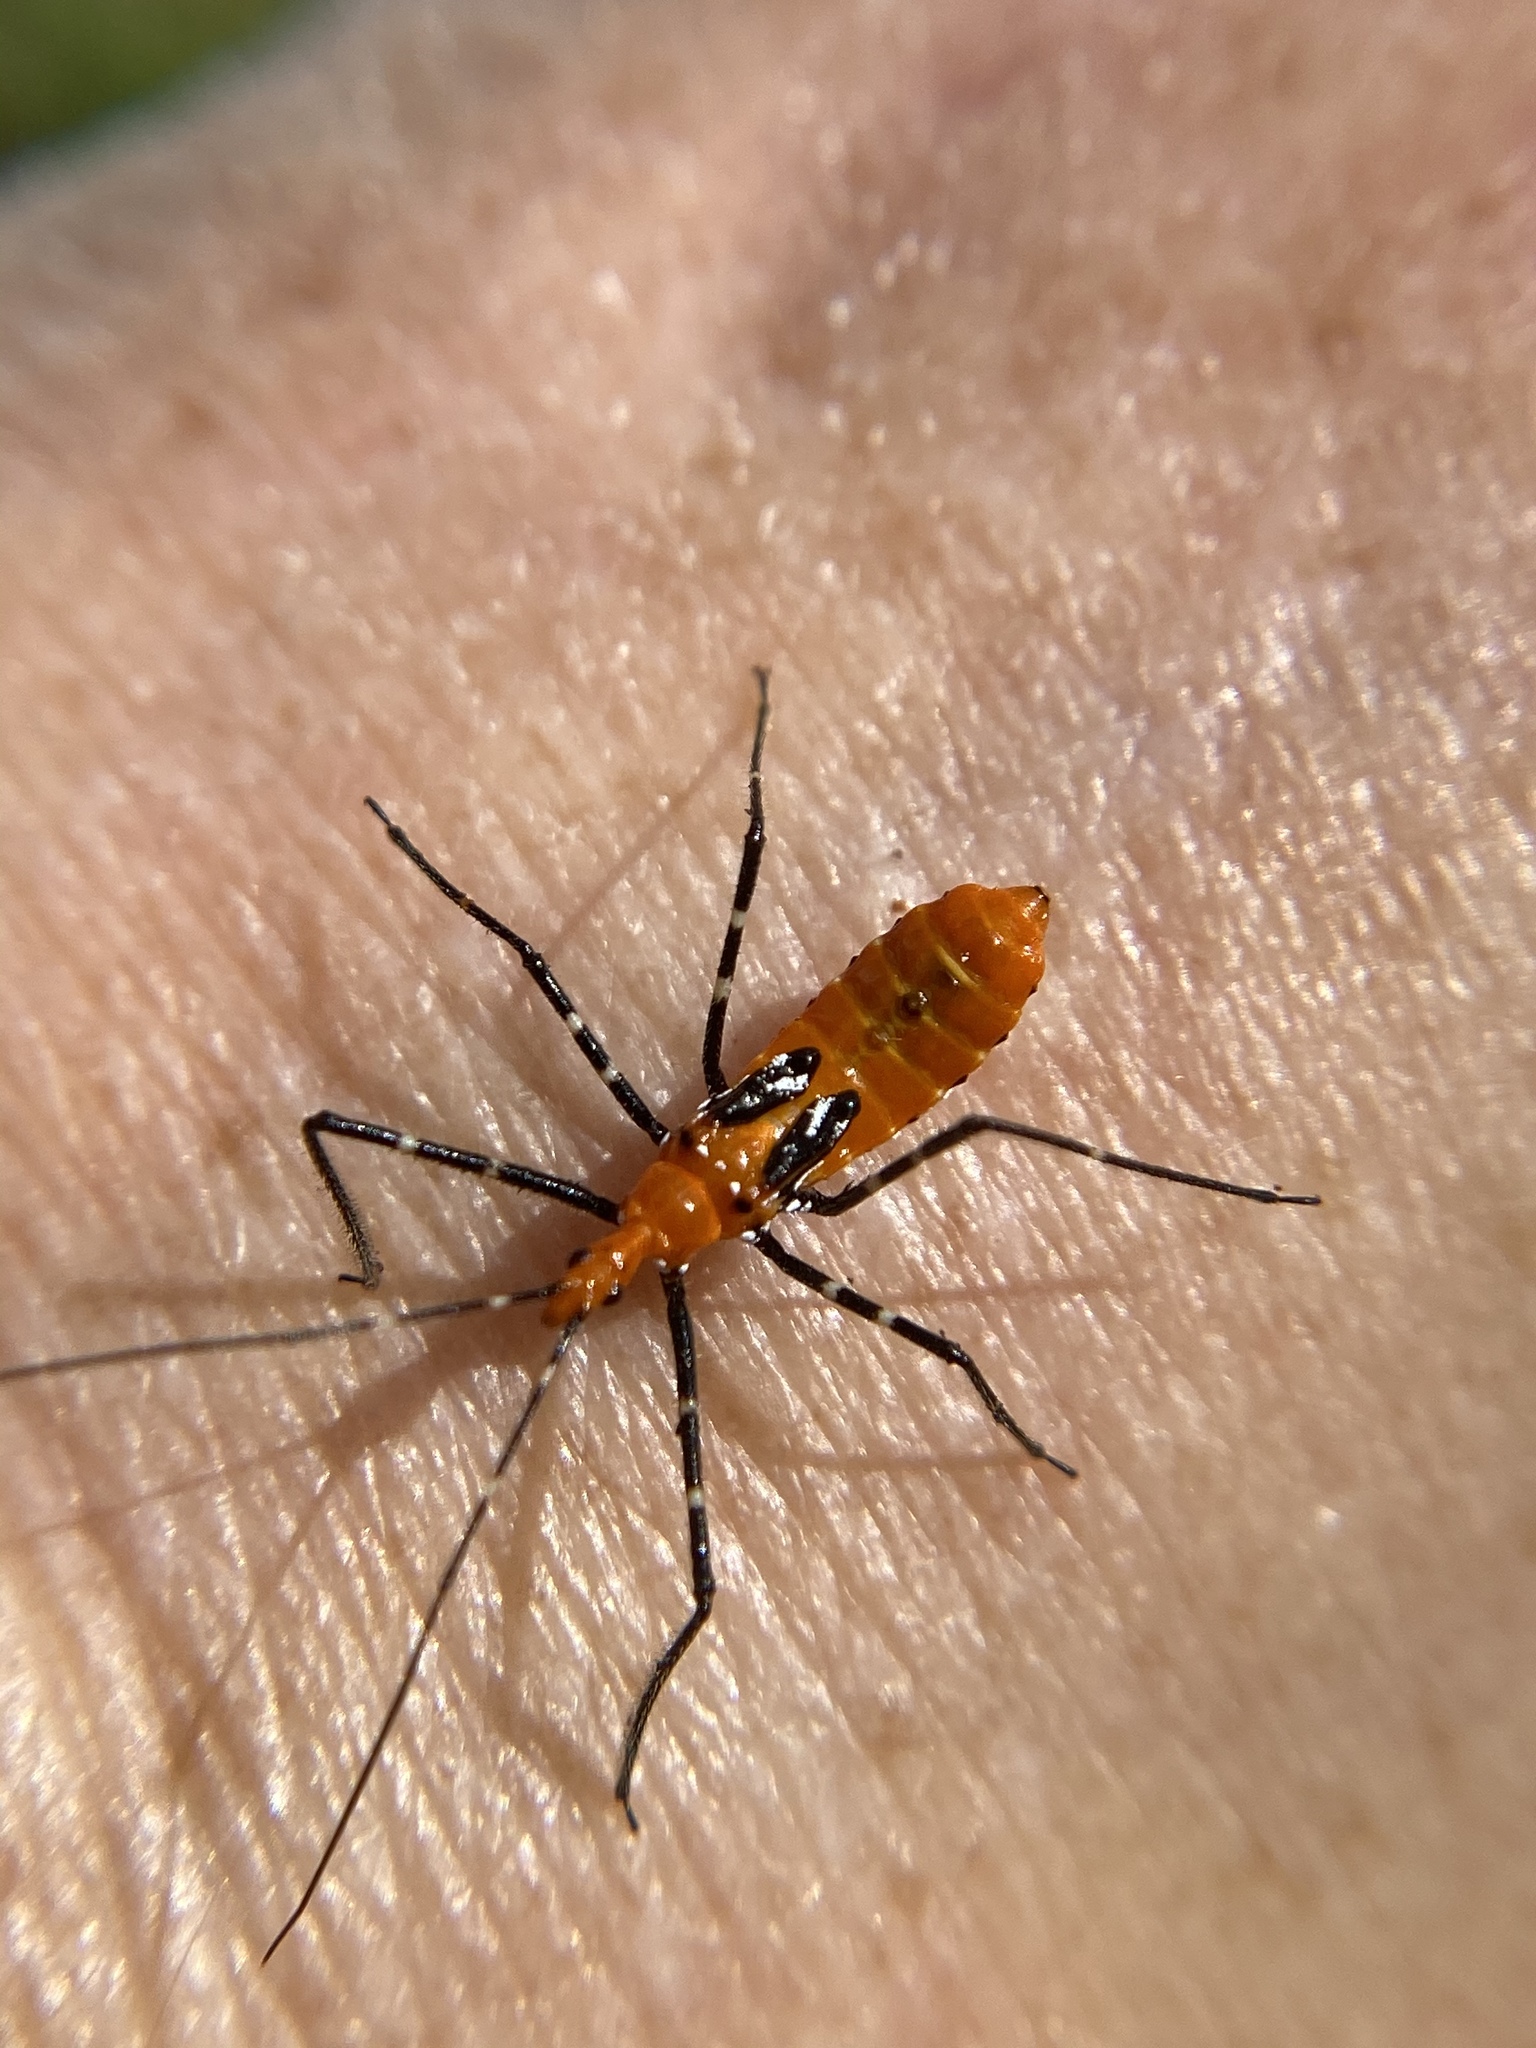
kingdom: Animalia
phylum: Arthropoda
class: Insecta
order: Hemiptera
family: Reduviidae
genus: Zelus
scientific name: Zelus longipes
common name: Milkweed assassin bug
